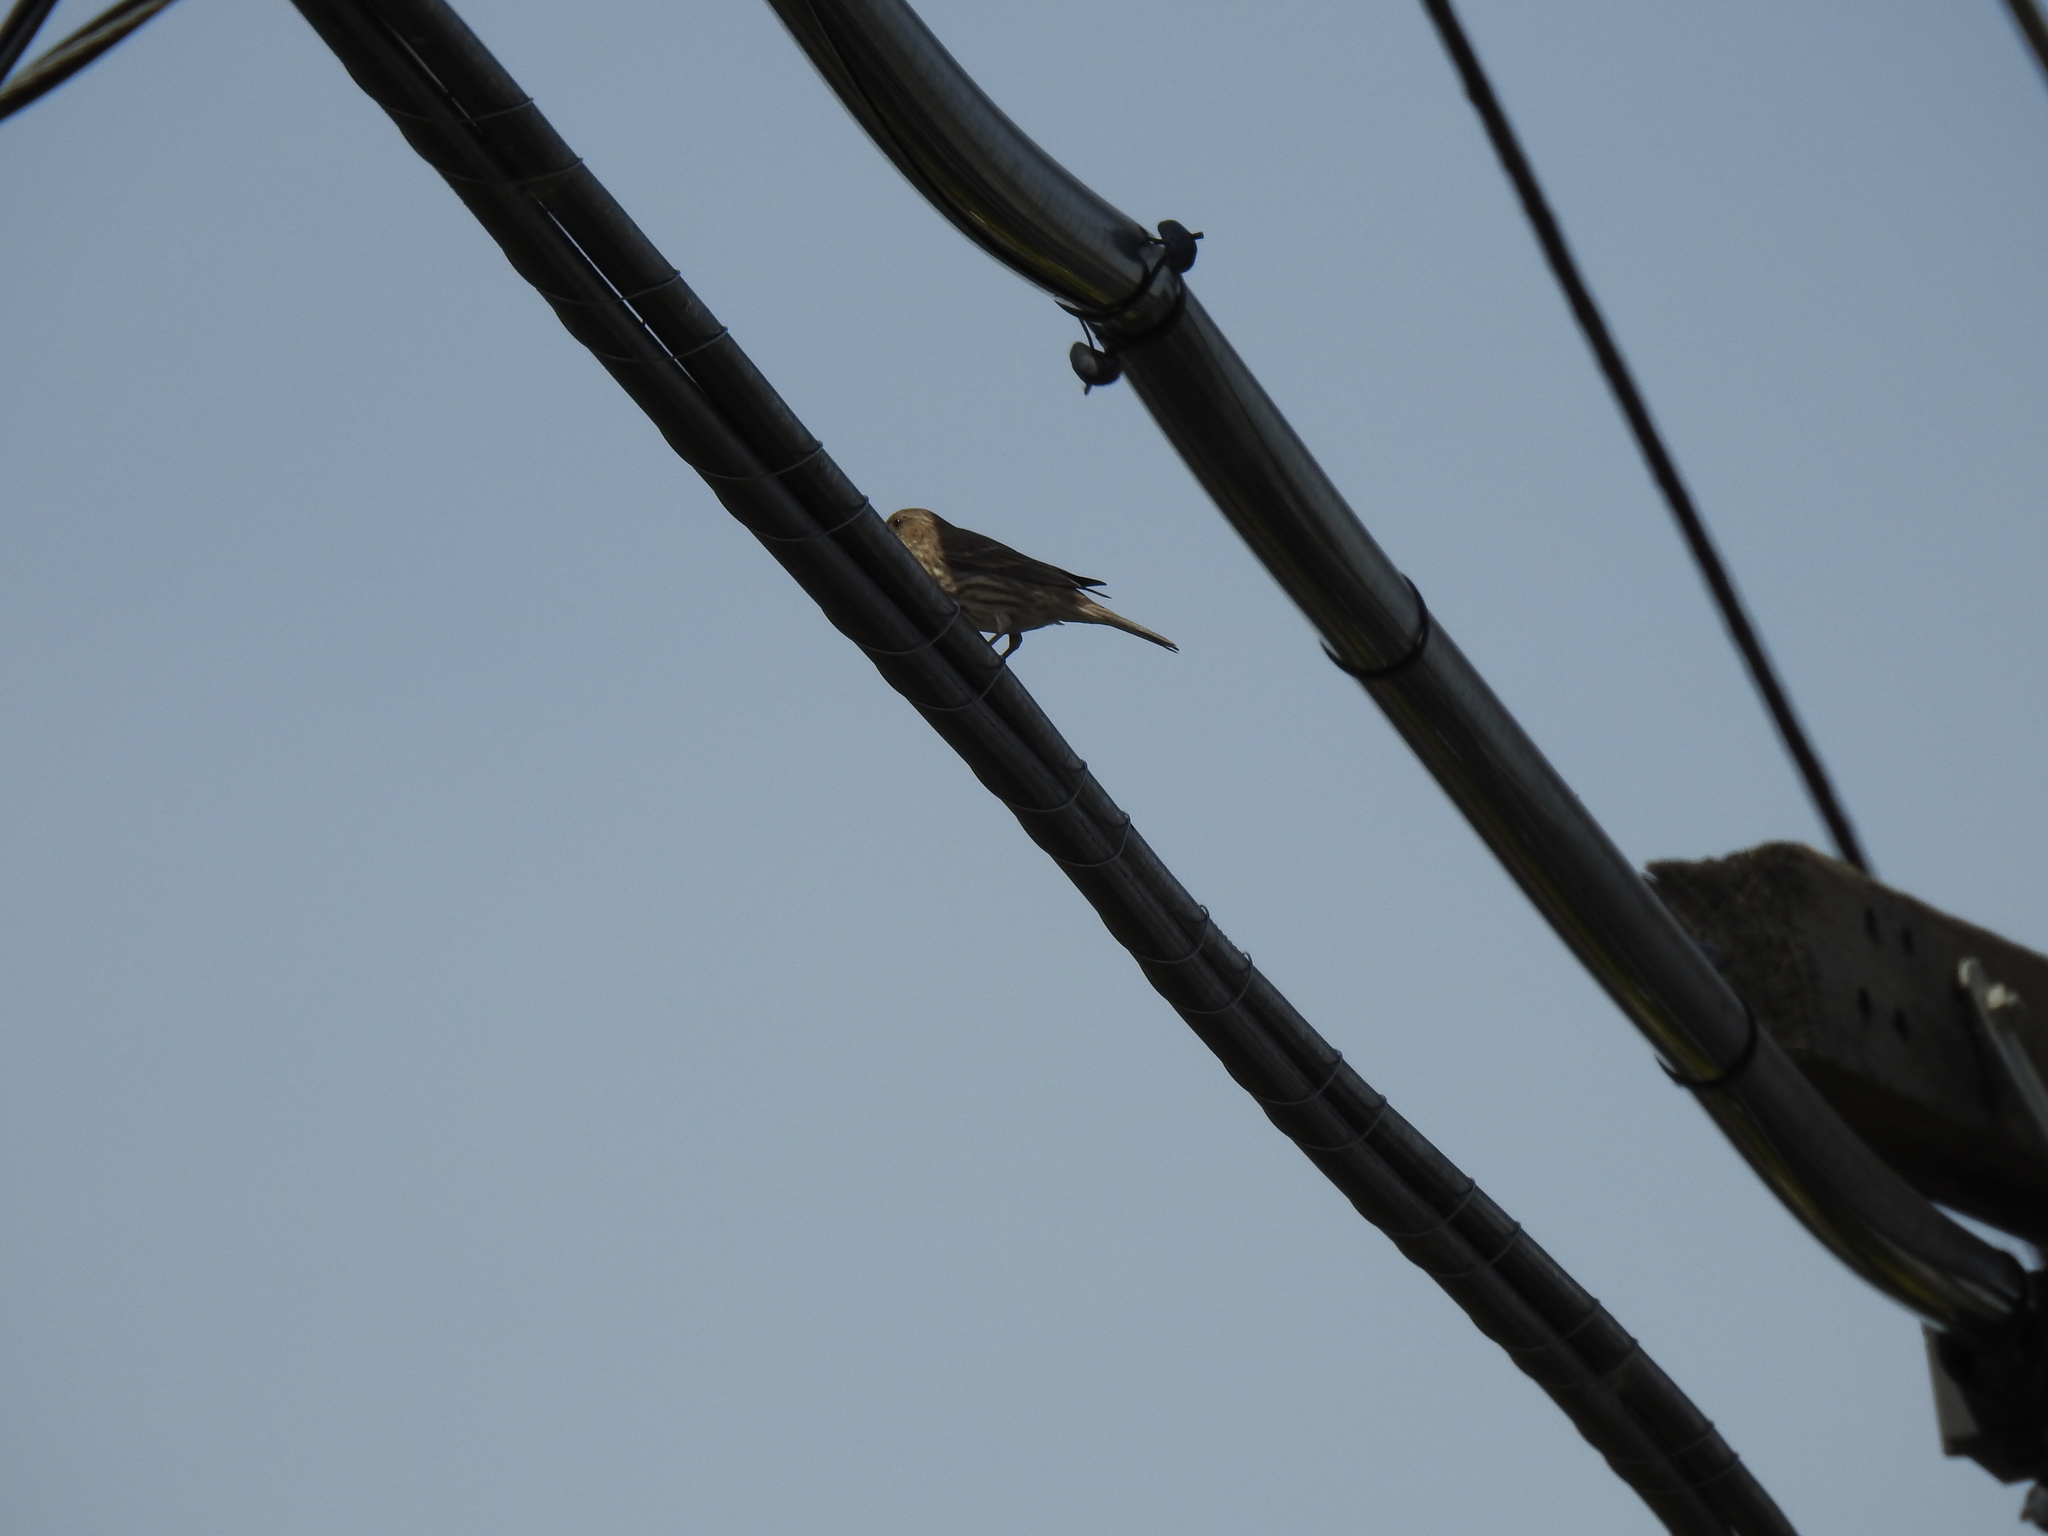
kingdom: Animalia
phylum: Chordata
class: Aves
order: Passeriformes
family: Fringillidae
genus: Haemorhous
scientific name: Haemorhous mexicanus
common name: House finch
